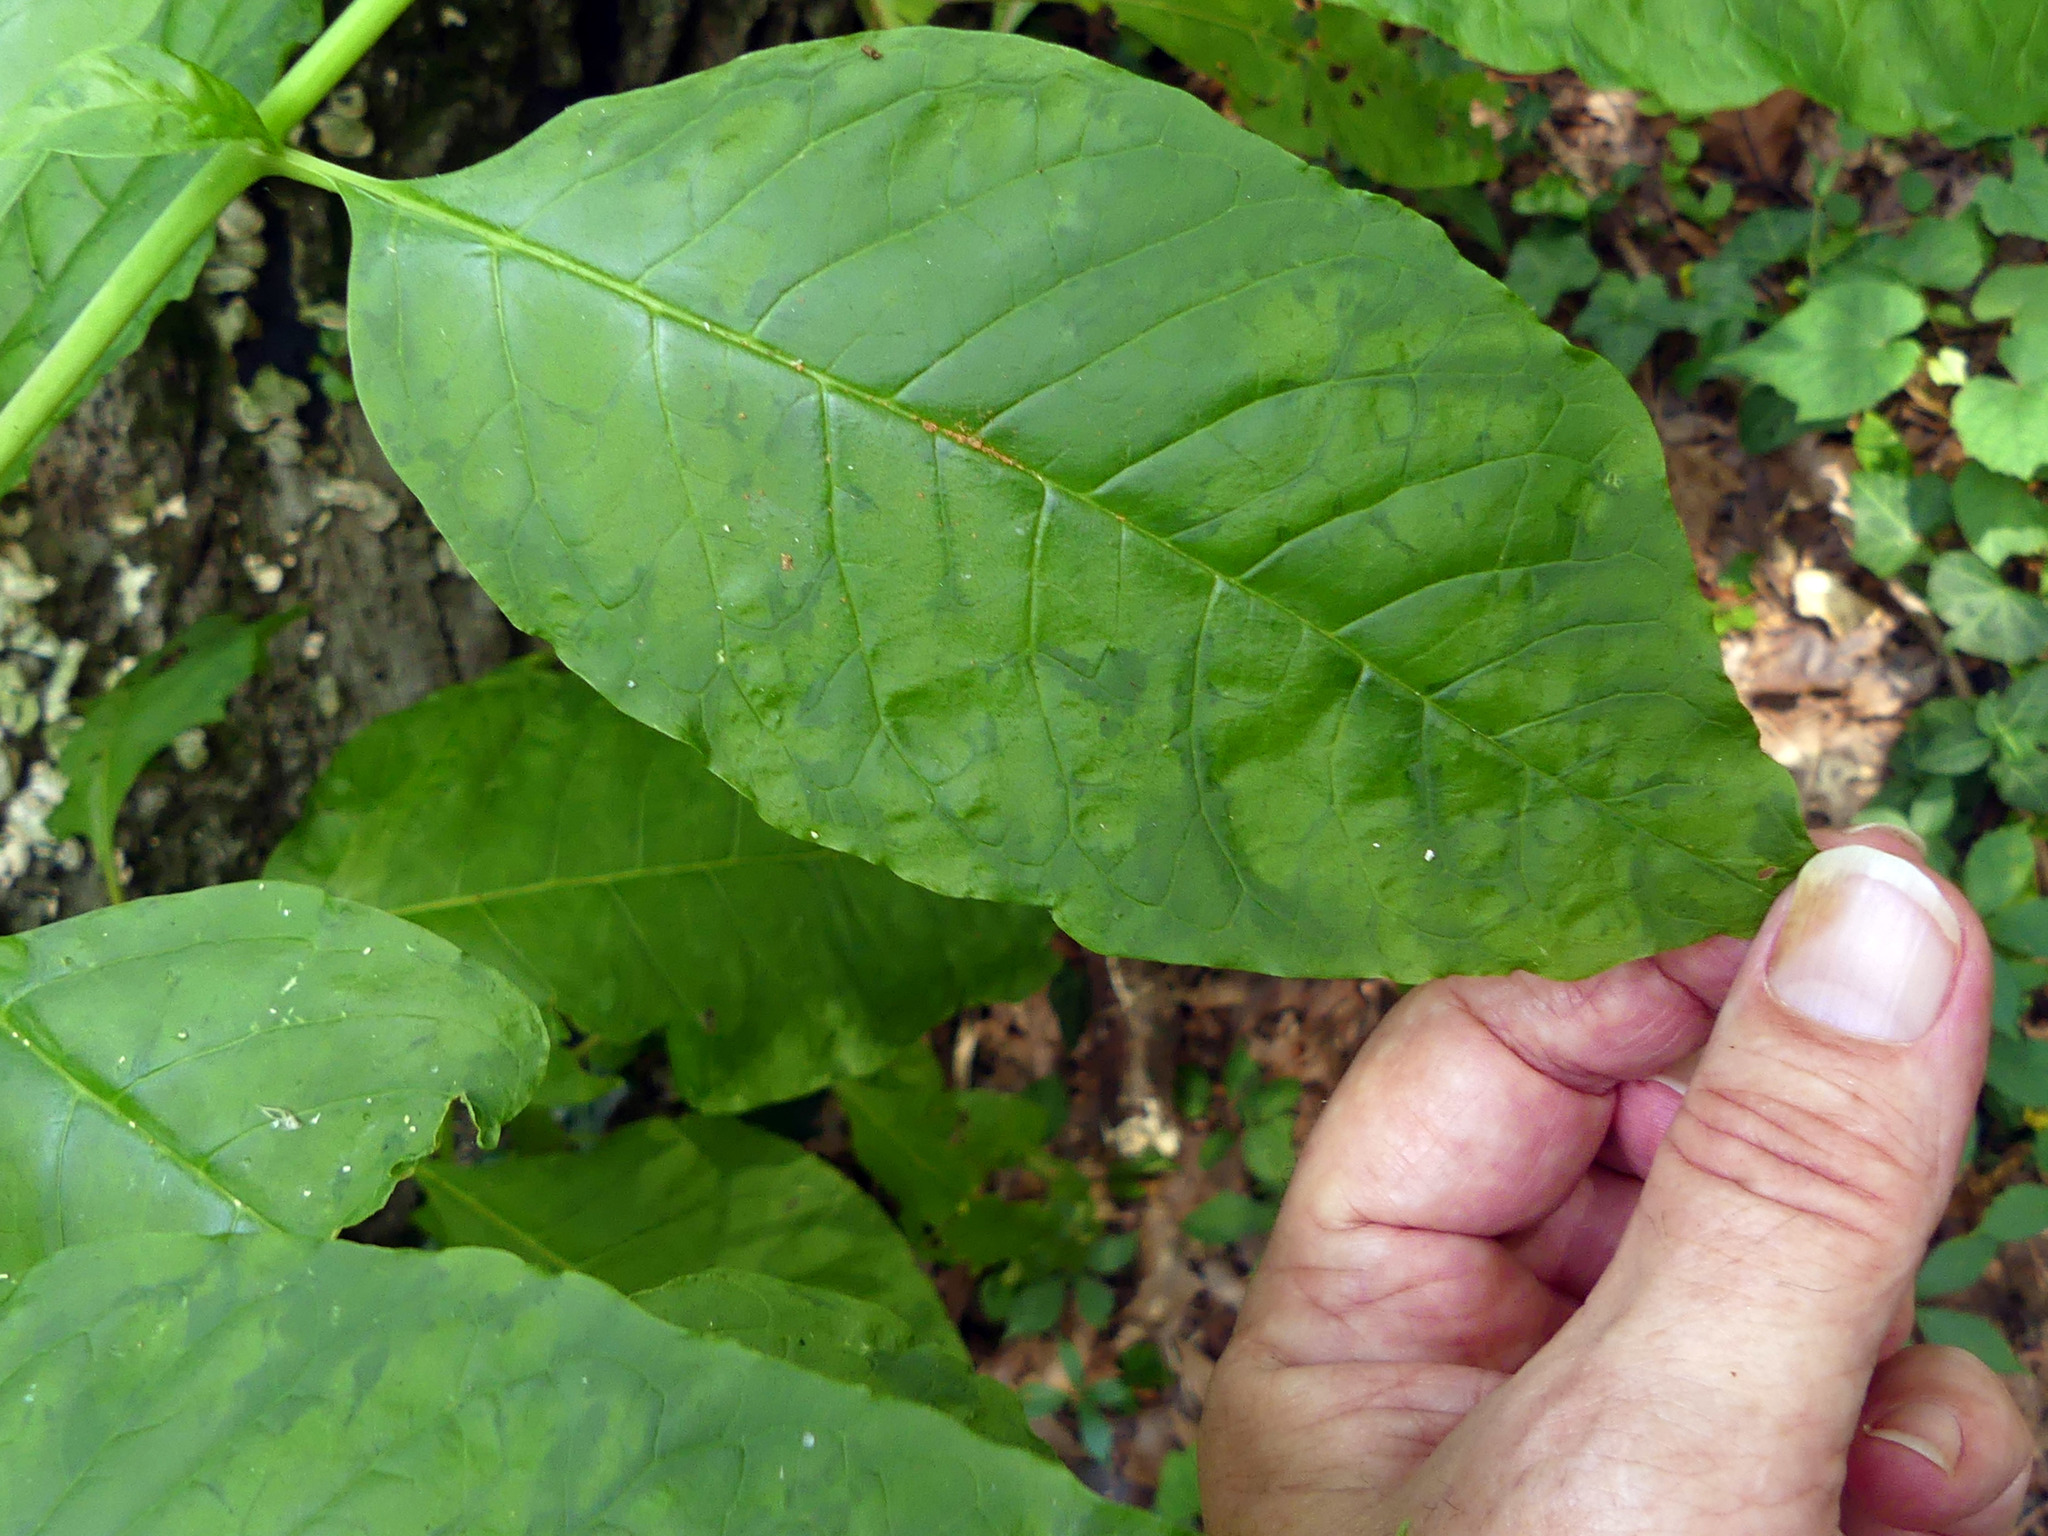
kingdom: Plantae
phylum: Tracheophyta
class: Magnoliopsida
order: Caryophyllales
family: Phytolaccaceae
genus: Phytolacca
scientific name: Phytolacca americana
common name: American pokeweed
